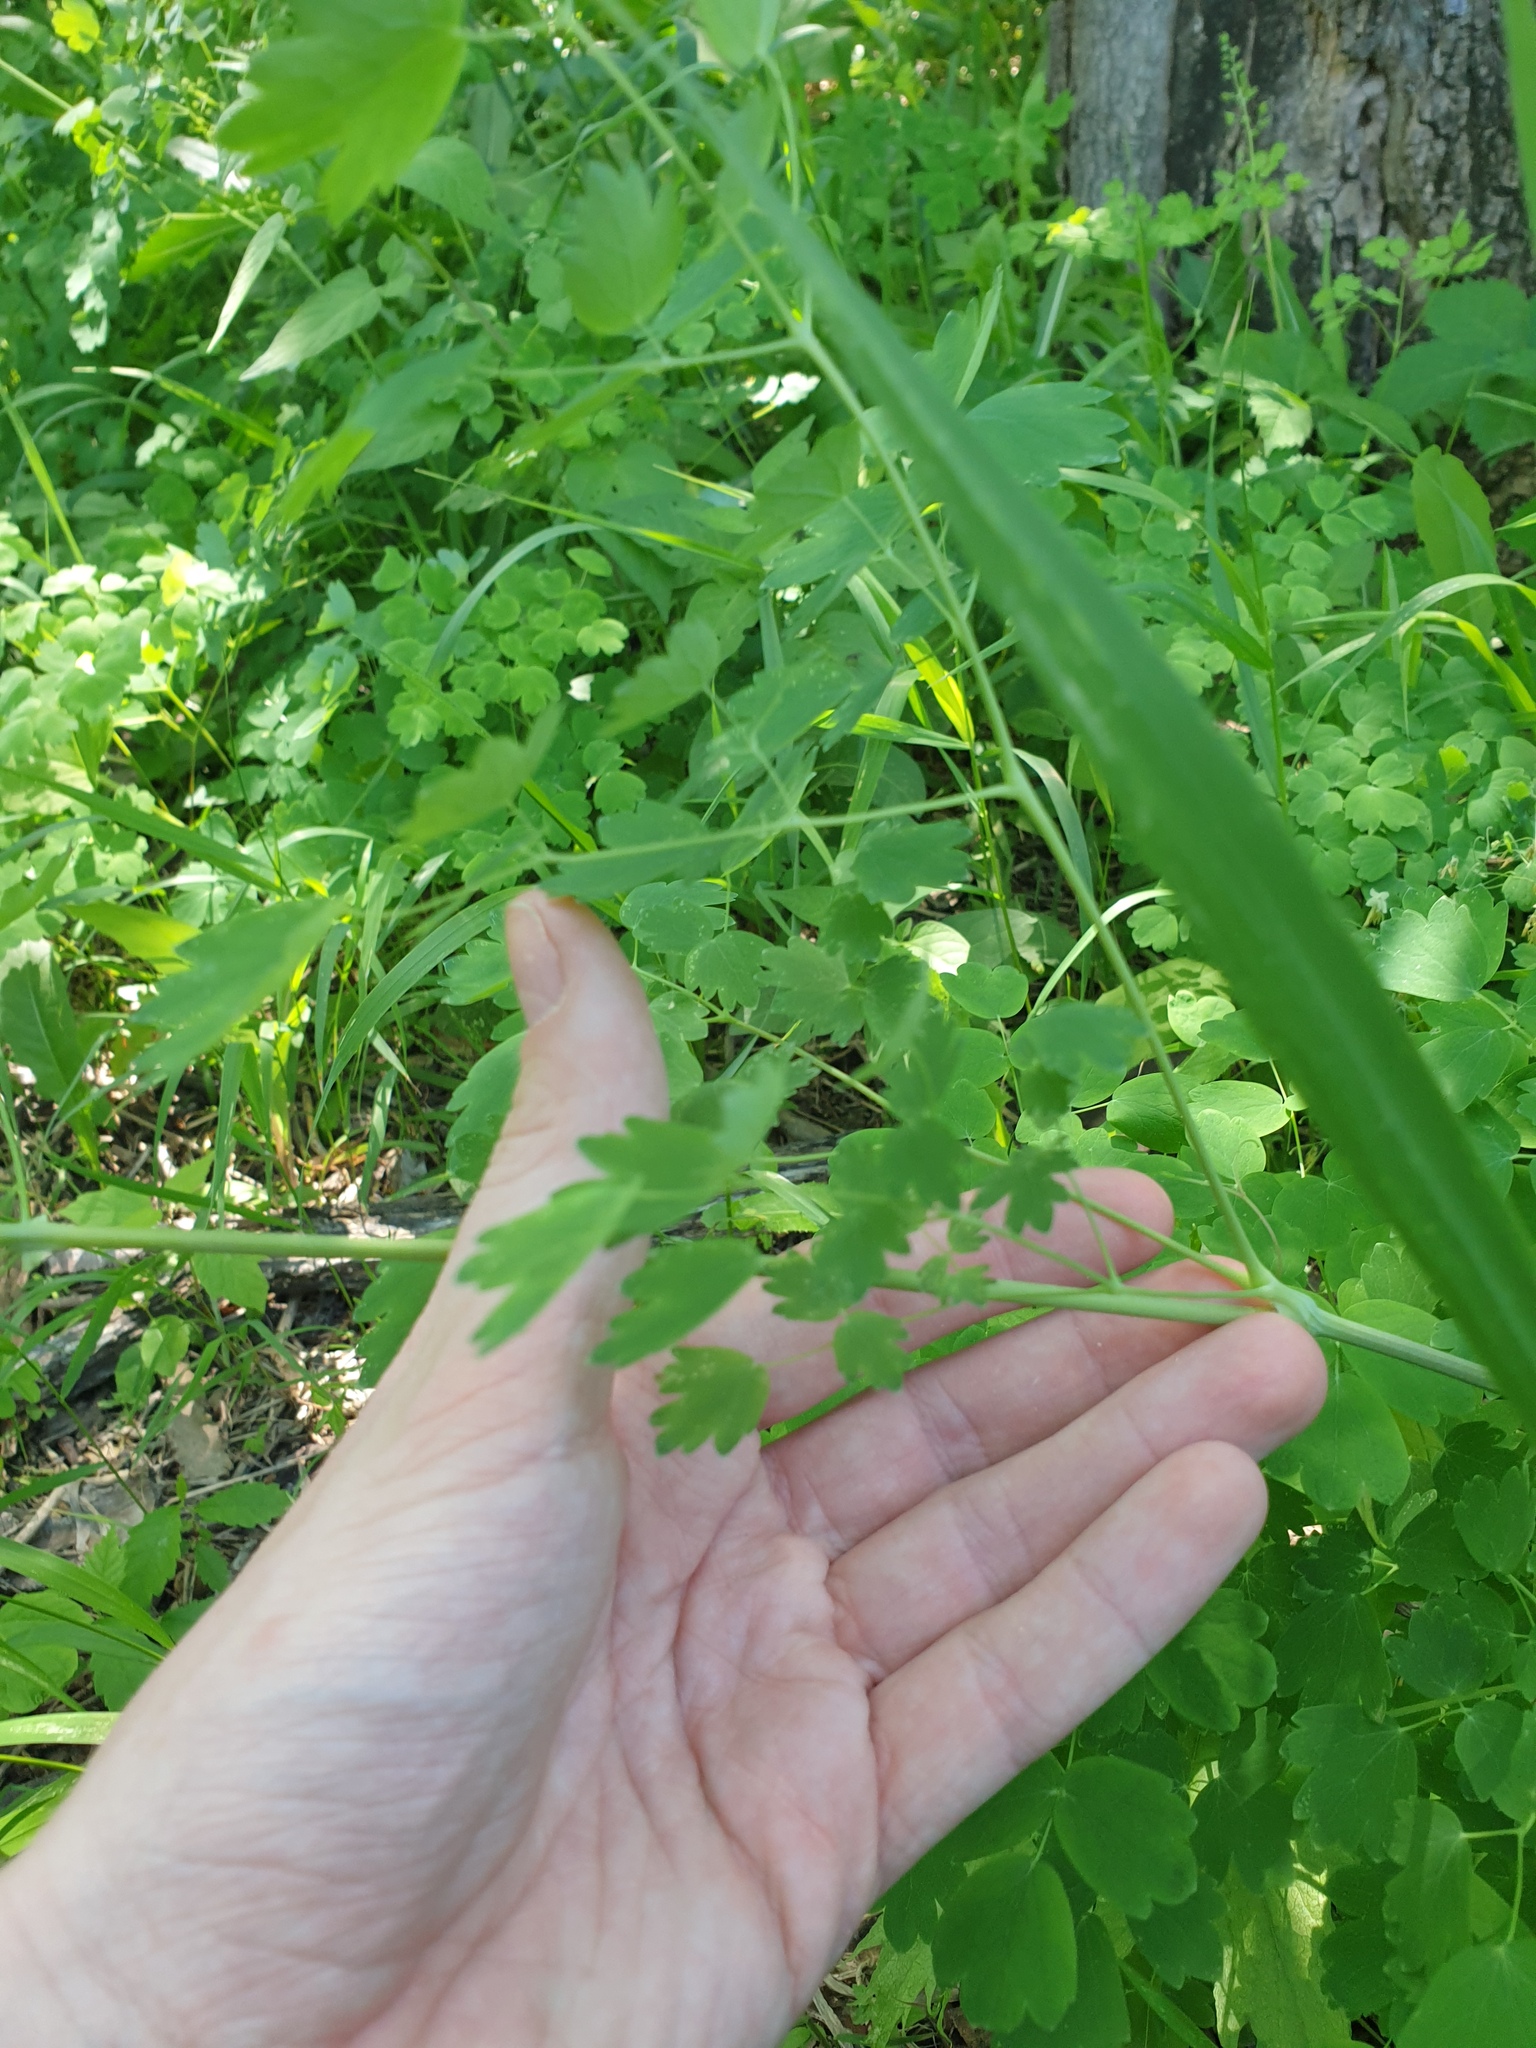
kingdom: Plantae
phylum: Tracheophyta
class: Magnoliopsida
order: Ranunculales
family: Ranunculaceae
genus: Thalictrum
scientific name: Thalictrum venulosum
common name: Early meadow-rue
